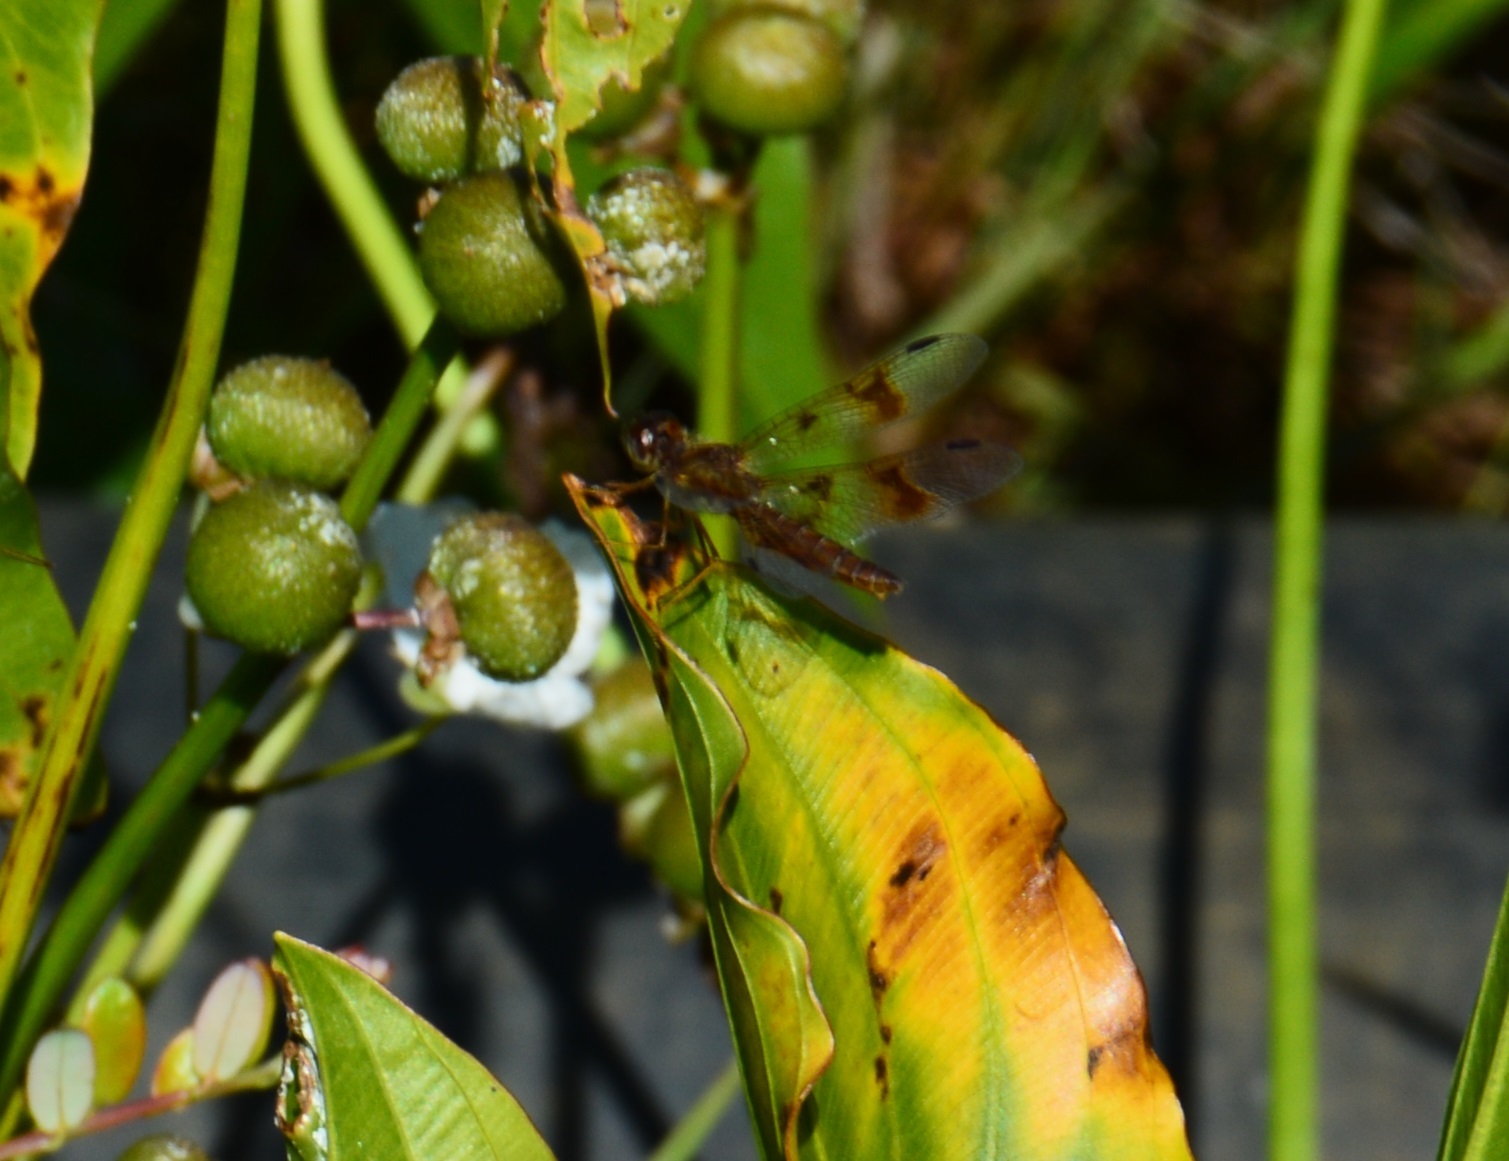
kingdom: Animalia
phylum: Arthropoda
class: Insecta
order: Odonata
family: Libellulidae
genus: Perithemis
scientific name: Perithemis tenera
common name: Eastern amberwing
